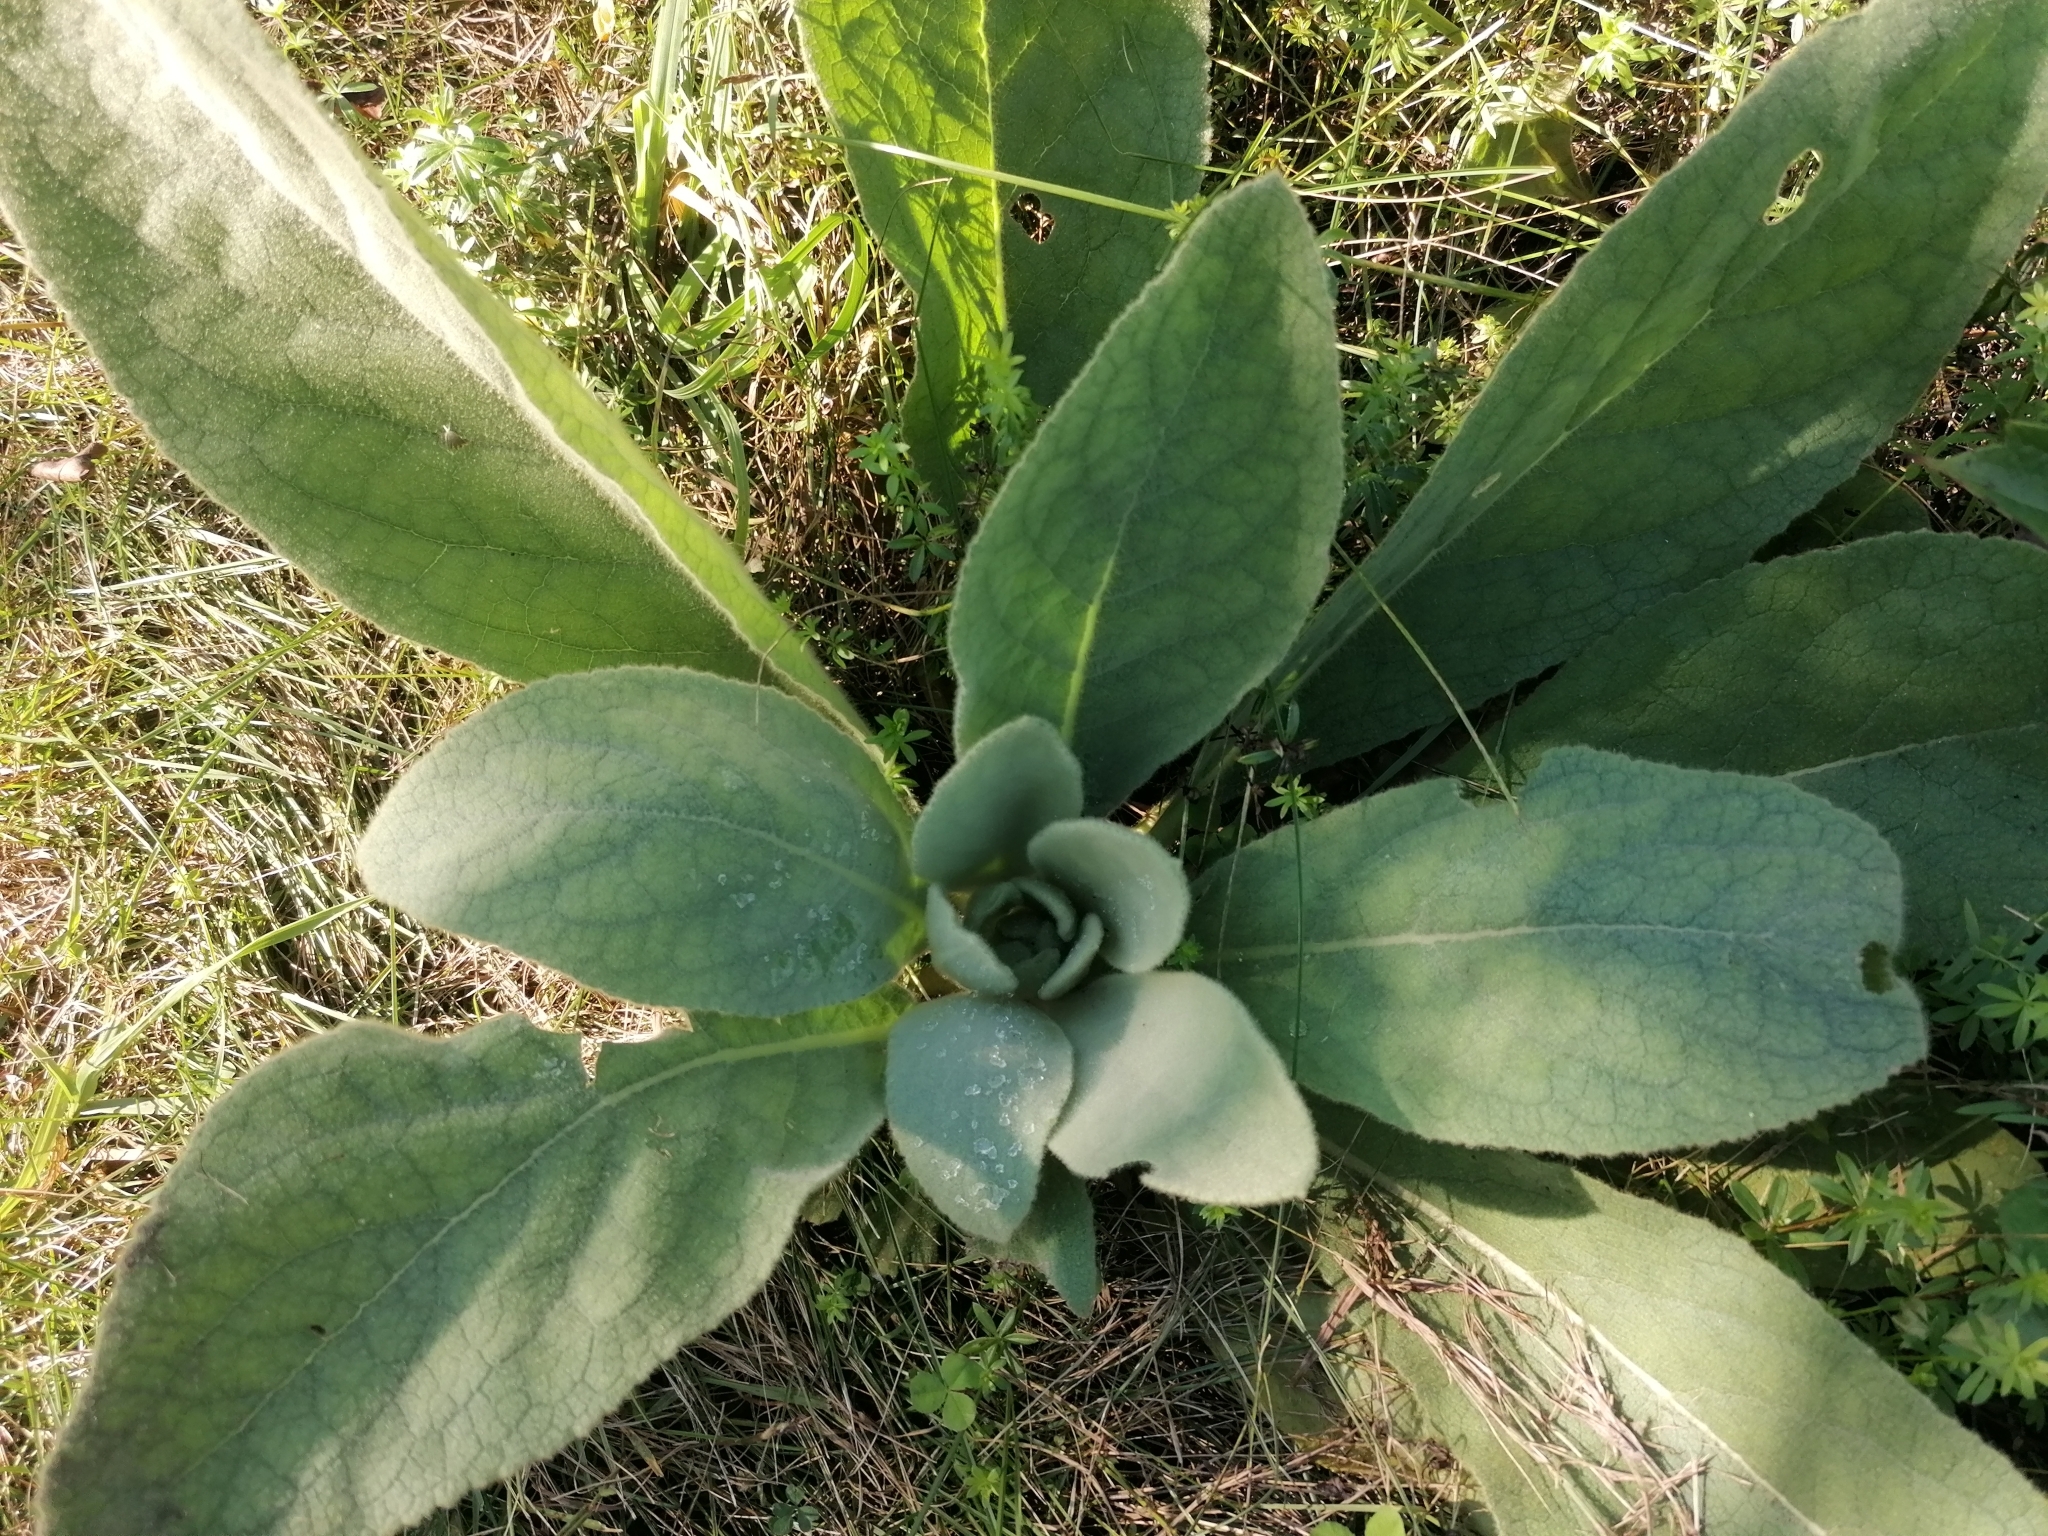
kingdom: Plantae
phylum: Tracheophyta
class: Magnoliopsida
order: Lamiales
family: Scrophulariaceae
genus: Verbascum
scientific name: Verbascum thapsus
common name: Common mullein
